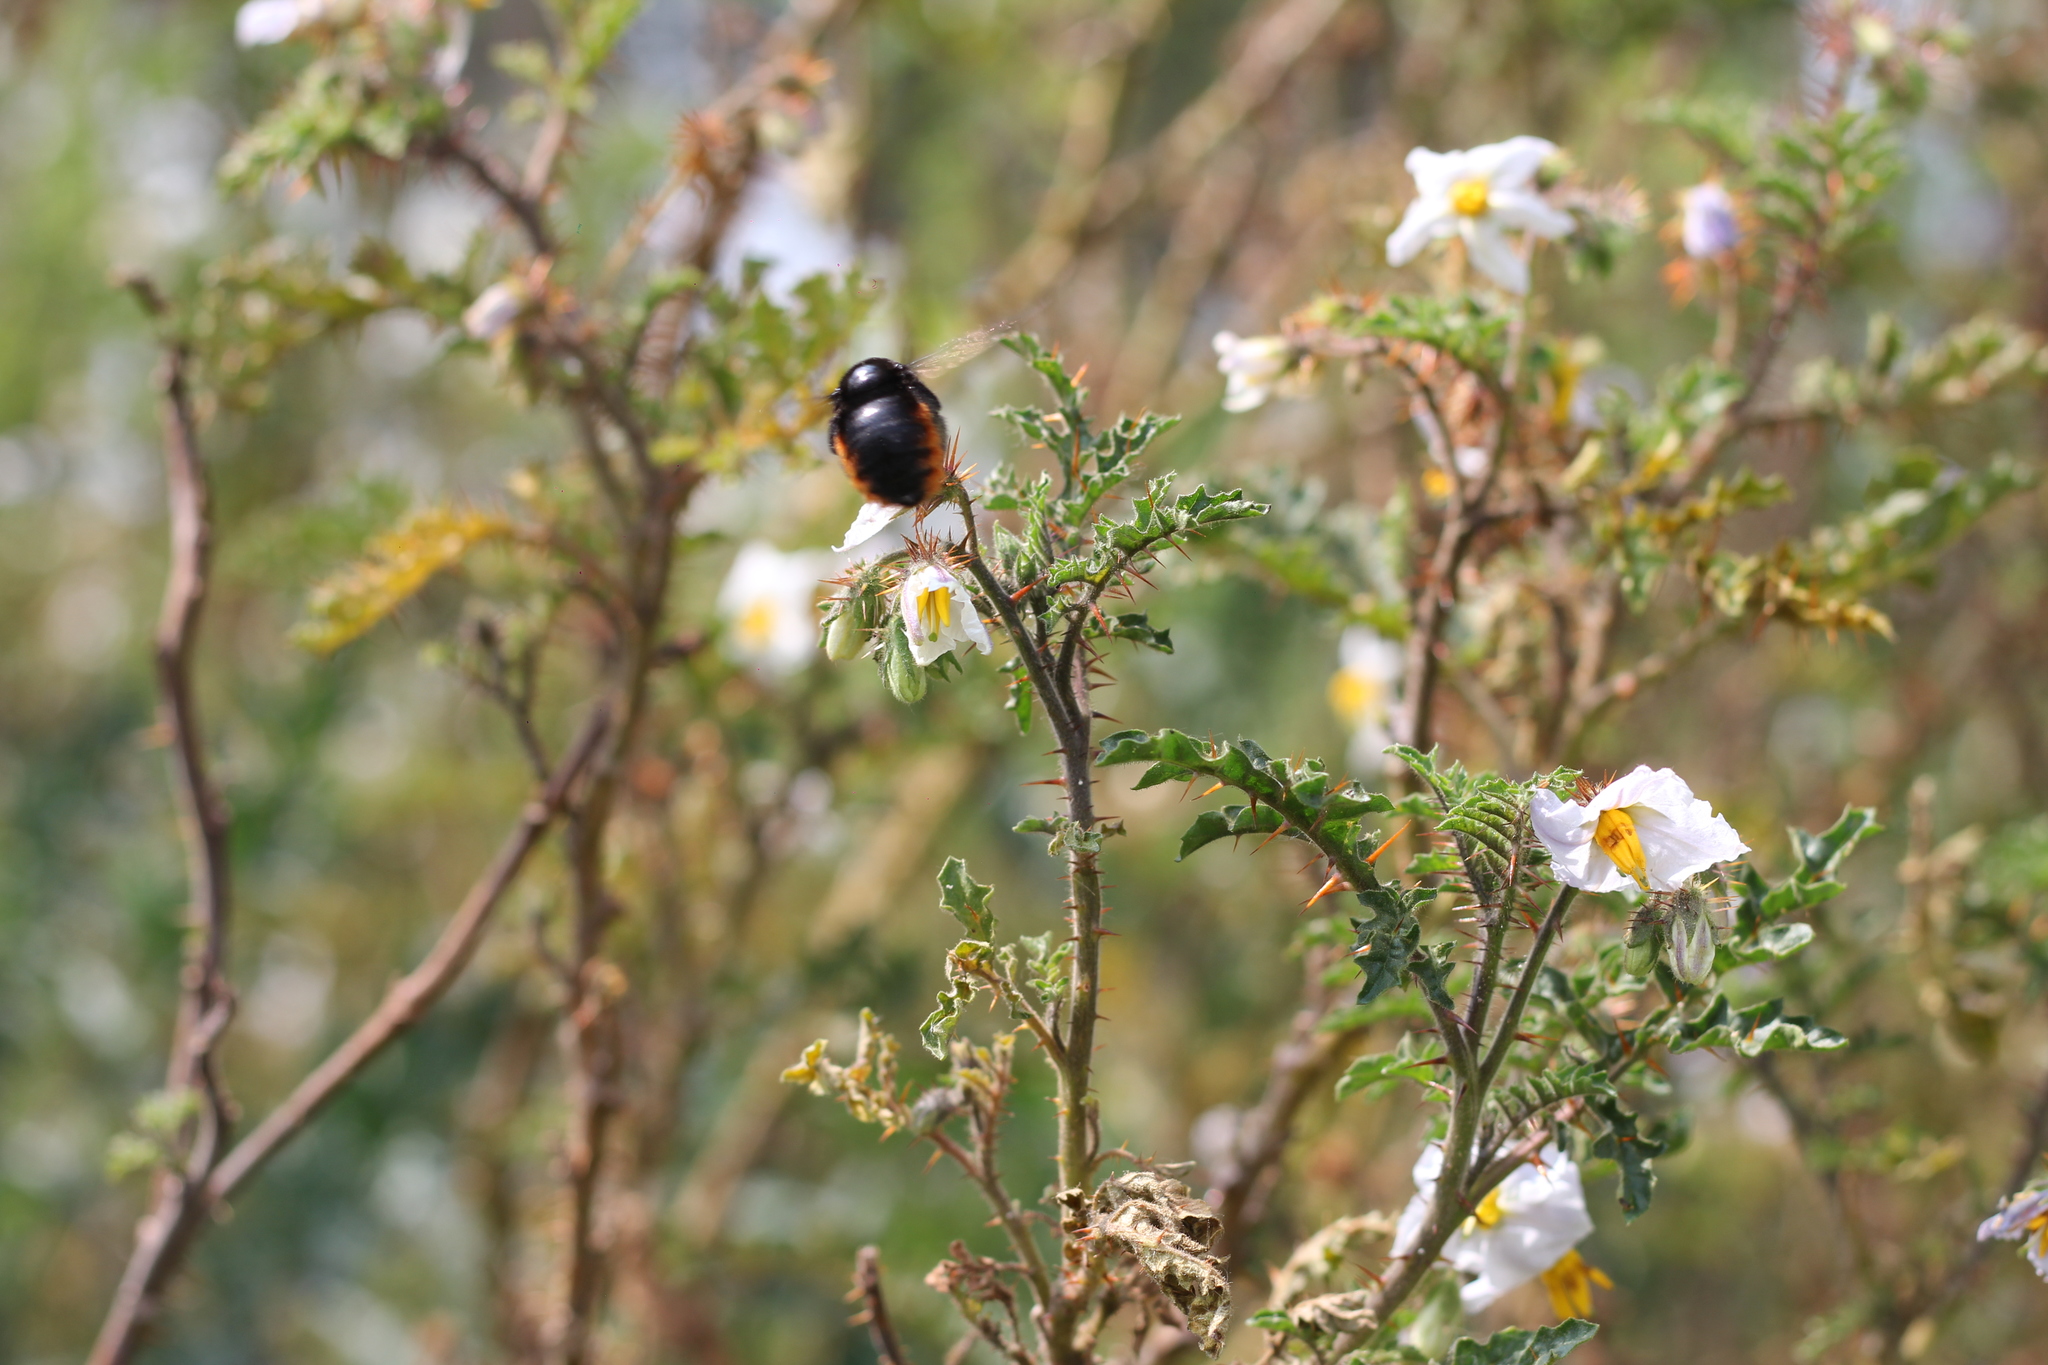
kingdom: Animalia
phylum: Arthropoda
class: Insecta
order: Hymenoptera
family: Apidae
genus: Xylocopa
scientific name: Xylocopa augusti
